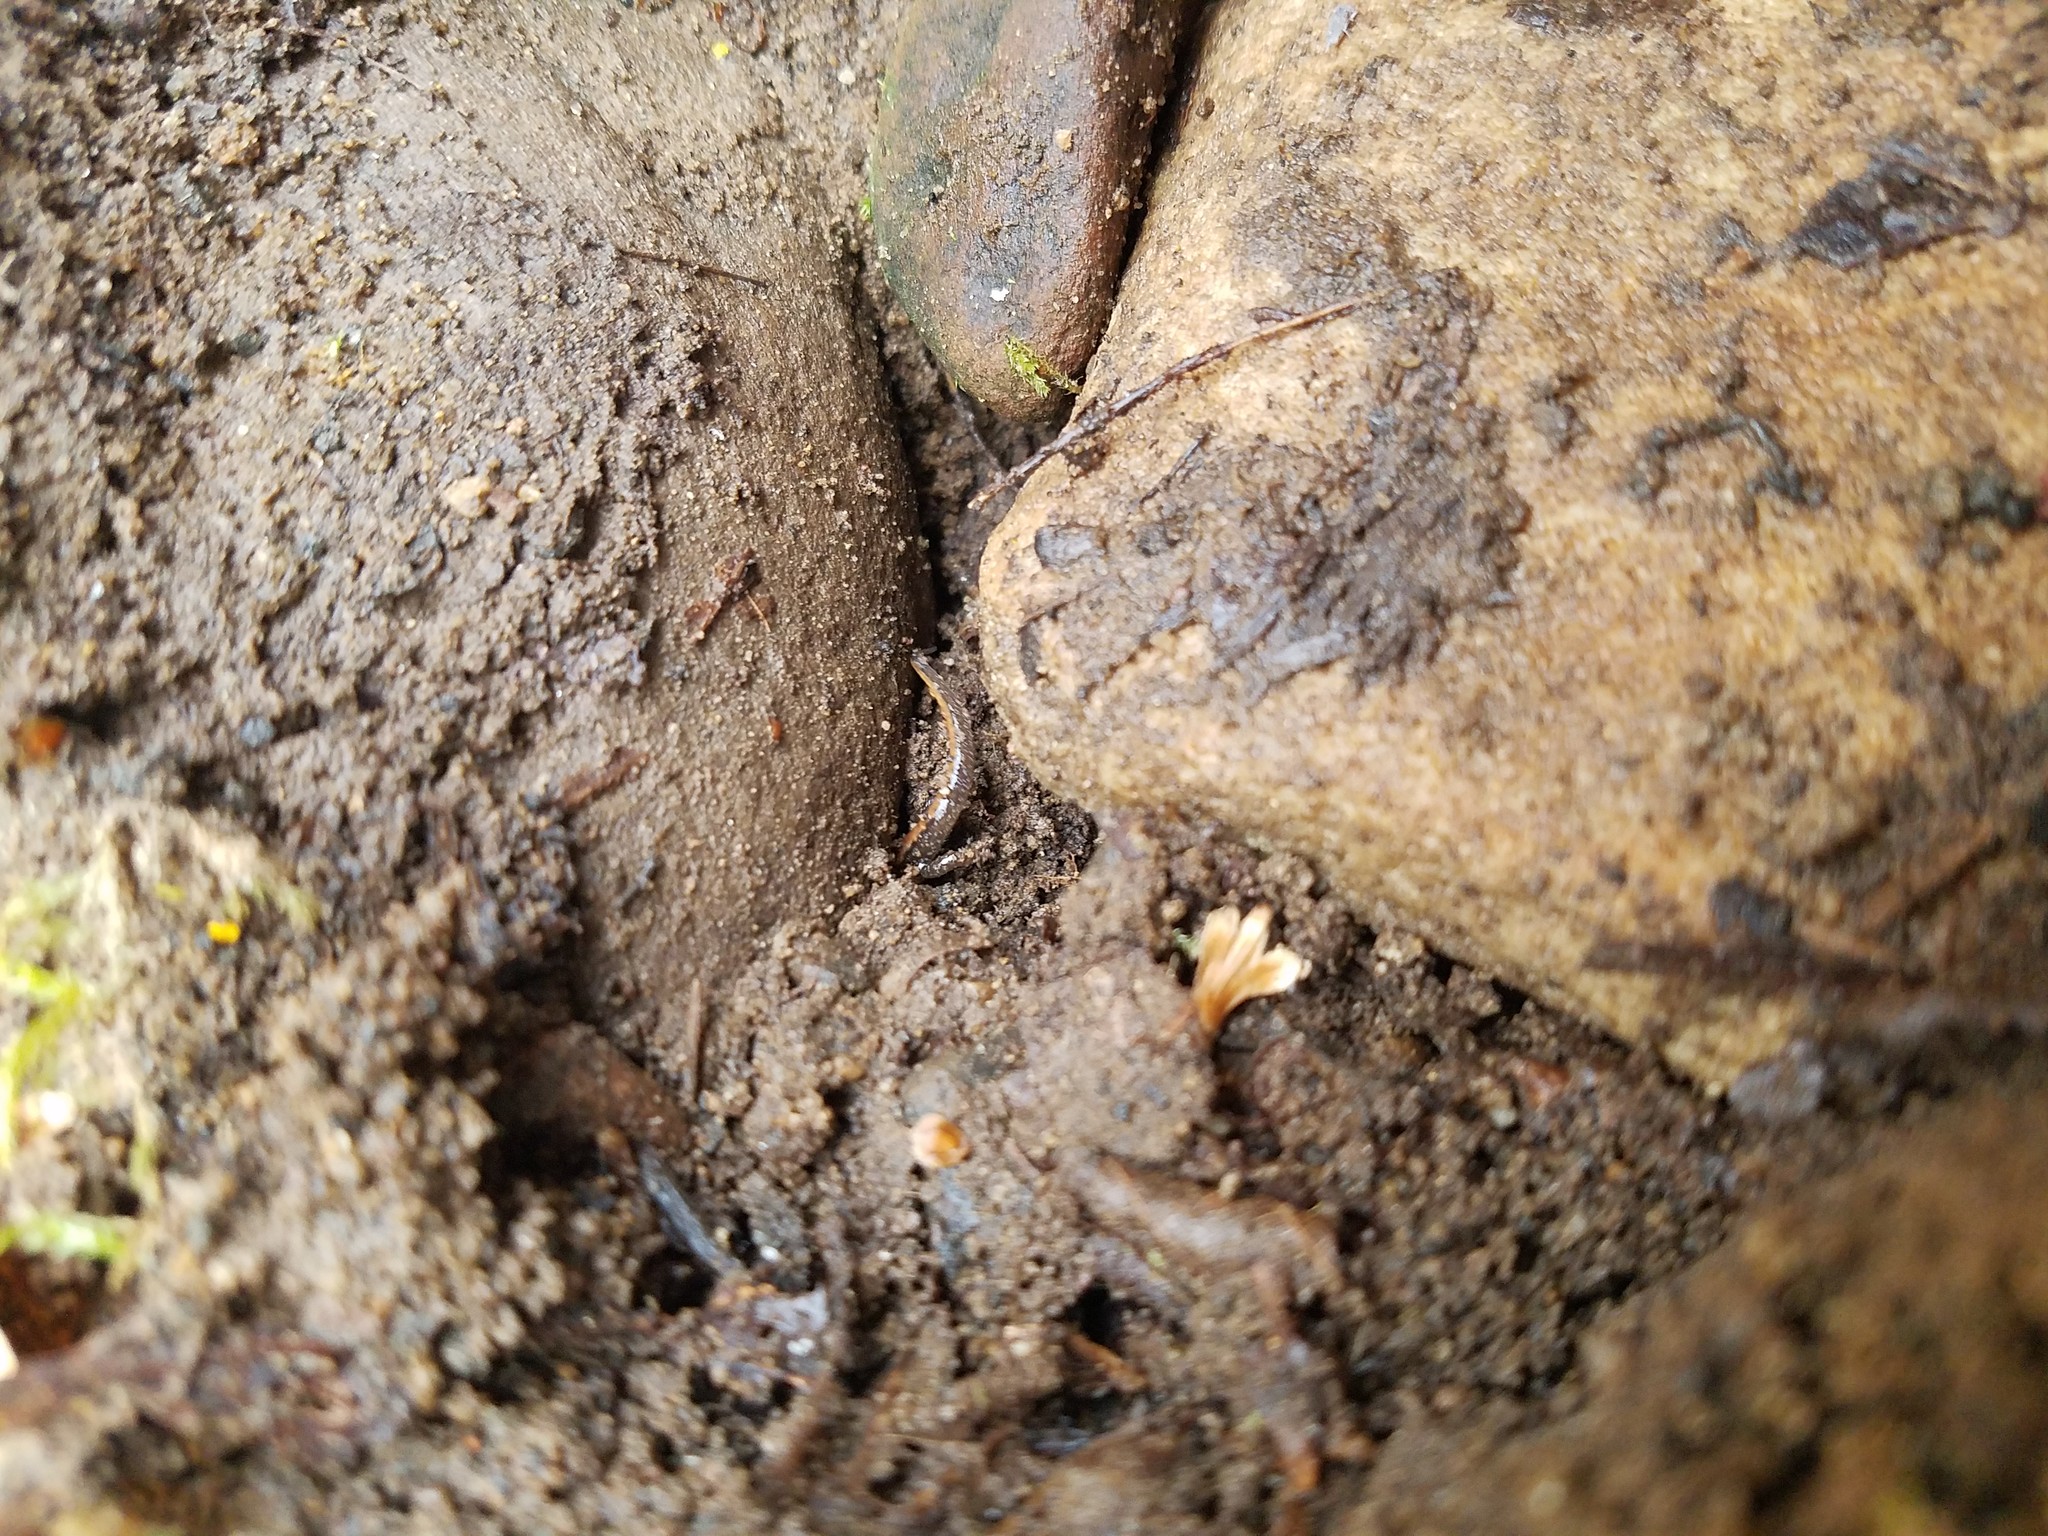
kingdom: Animalia
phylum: Chordata
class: Amphibia
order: Caudata
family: Plethodontidae
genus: Desmognathus
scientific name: Desmognathus ochrophaeus
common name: Allegheny mountain dusky salamander
